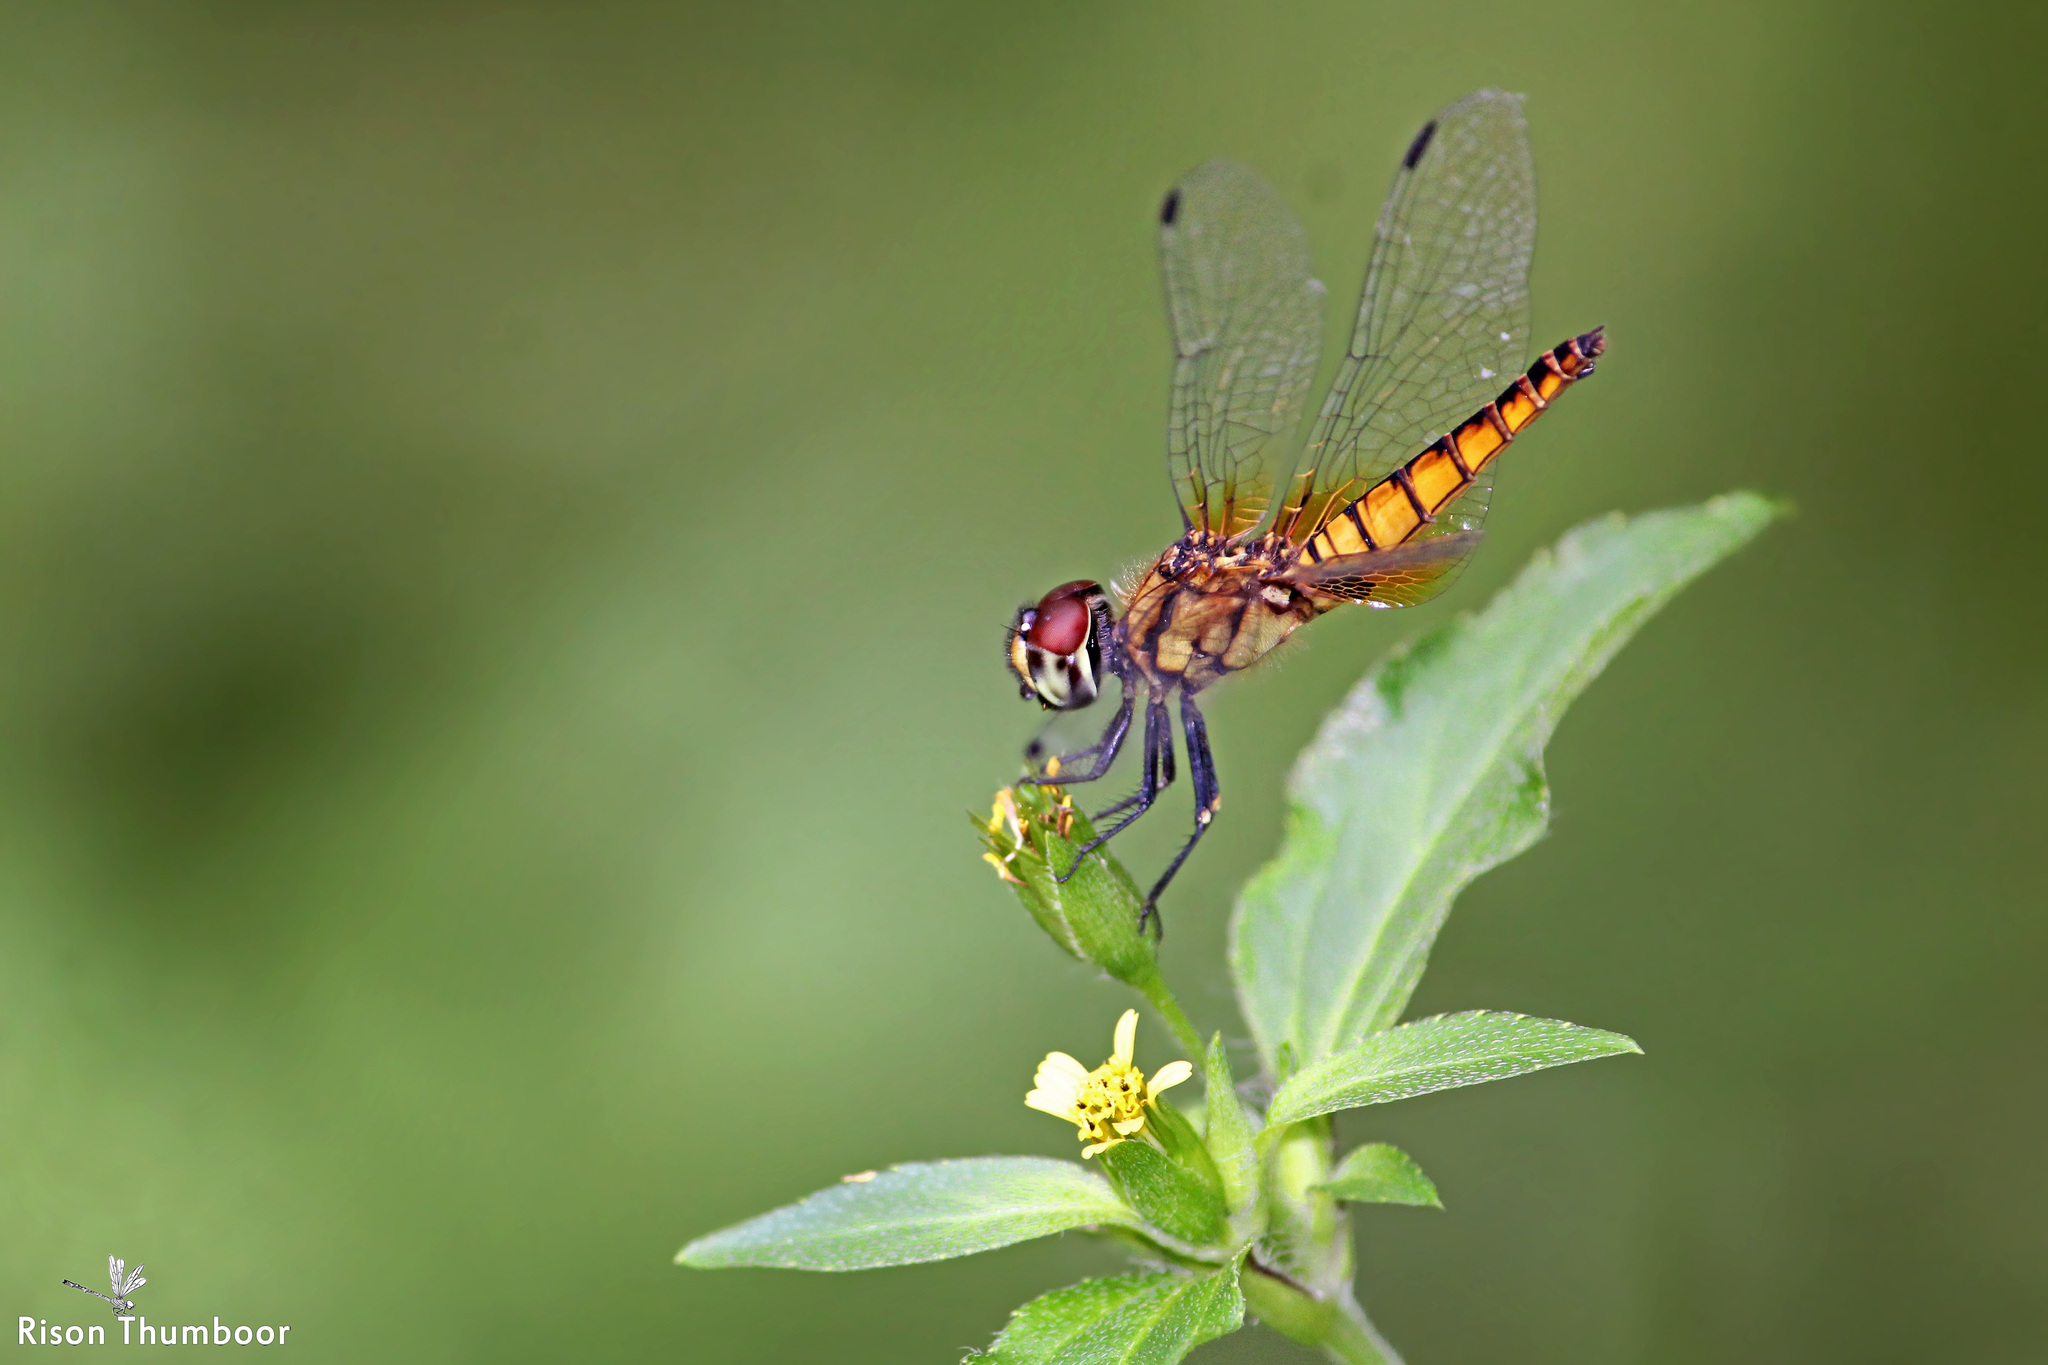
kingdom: Animalia
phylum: Arthropoda
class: Insecta
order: Odonata
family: Libellulidae
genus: Aethriamanta
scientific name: Aethriamanta brevipennis
